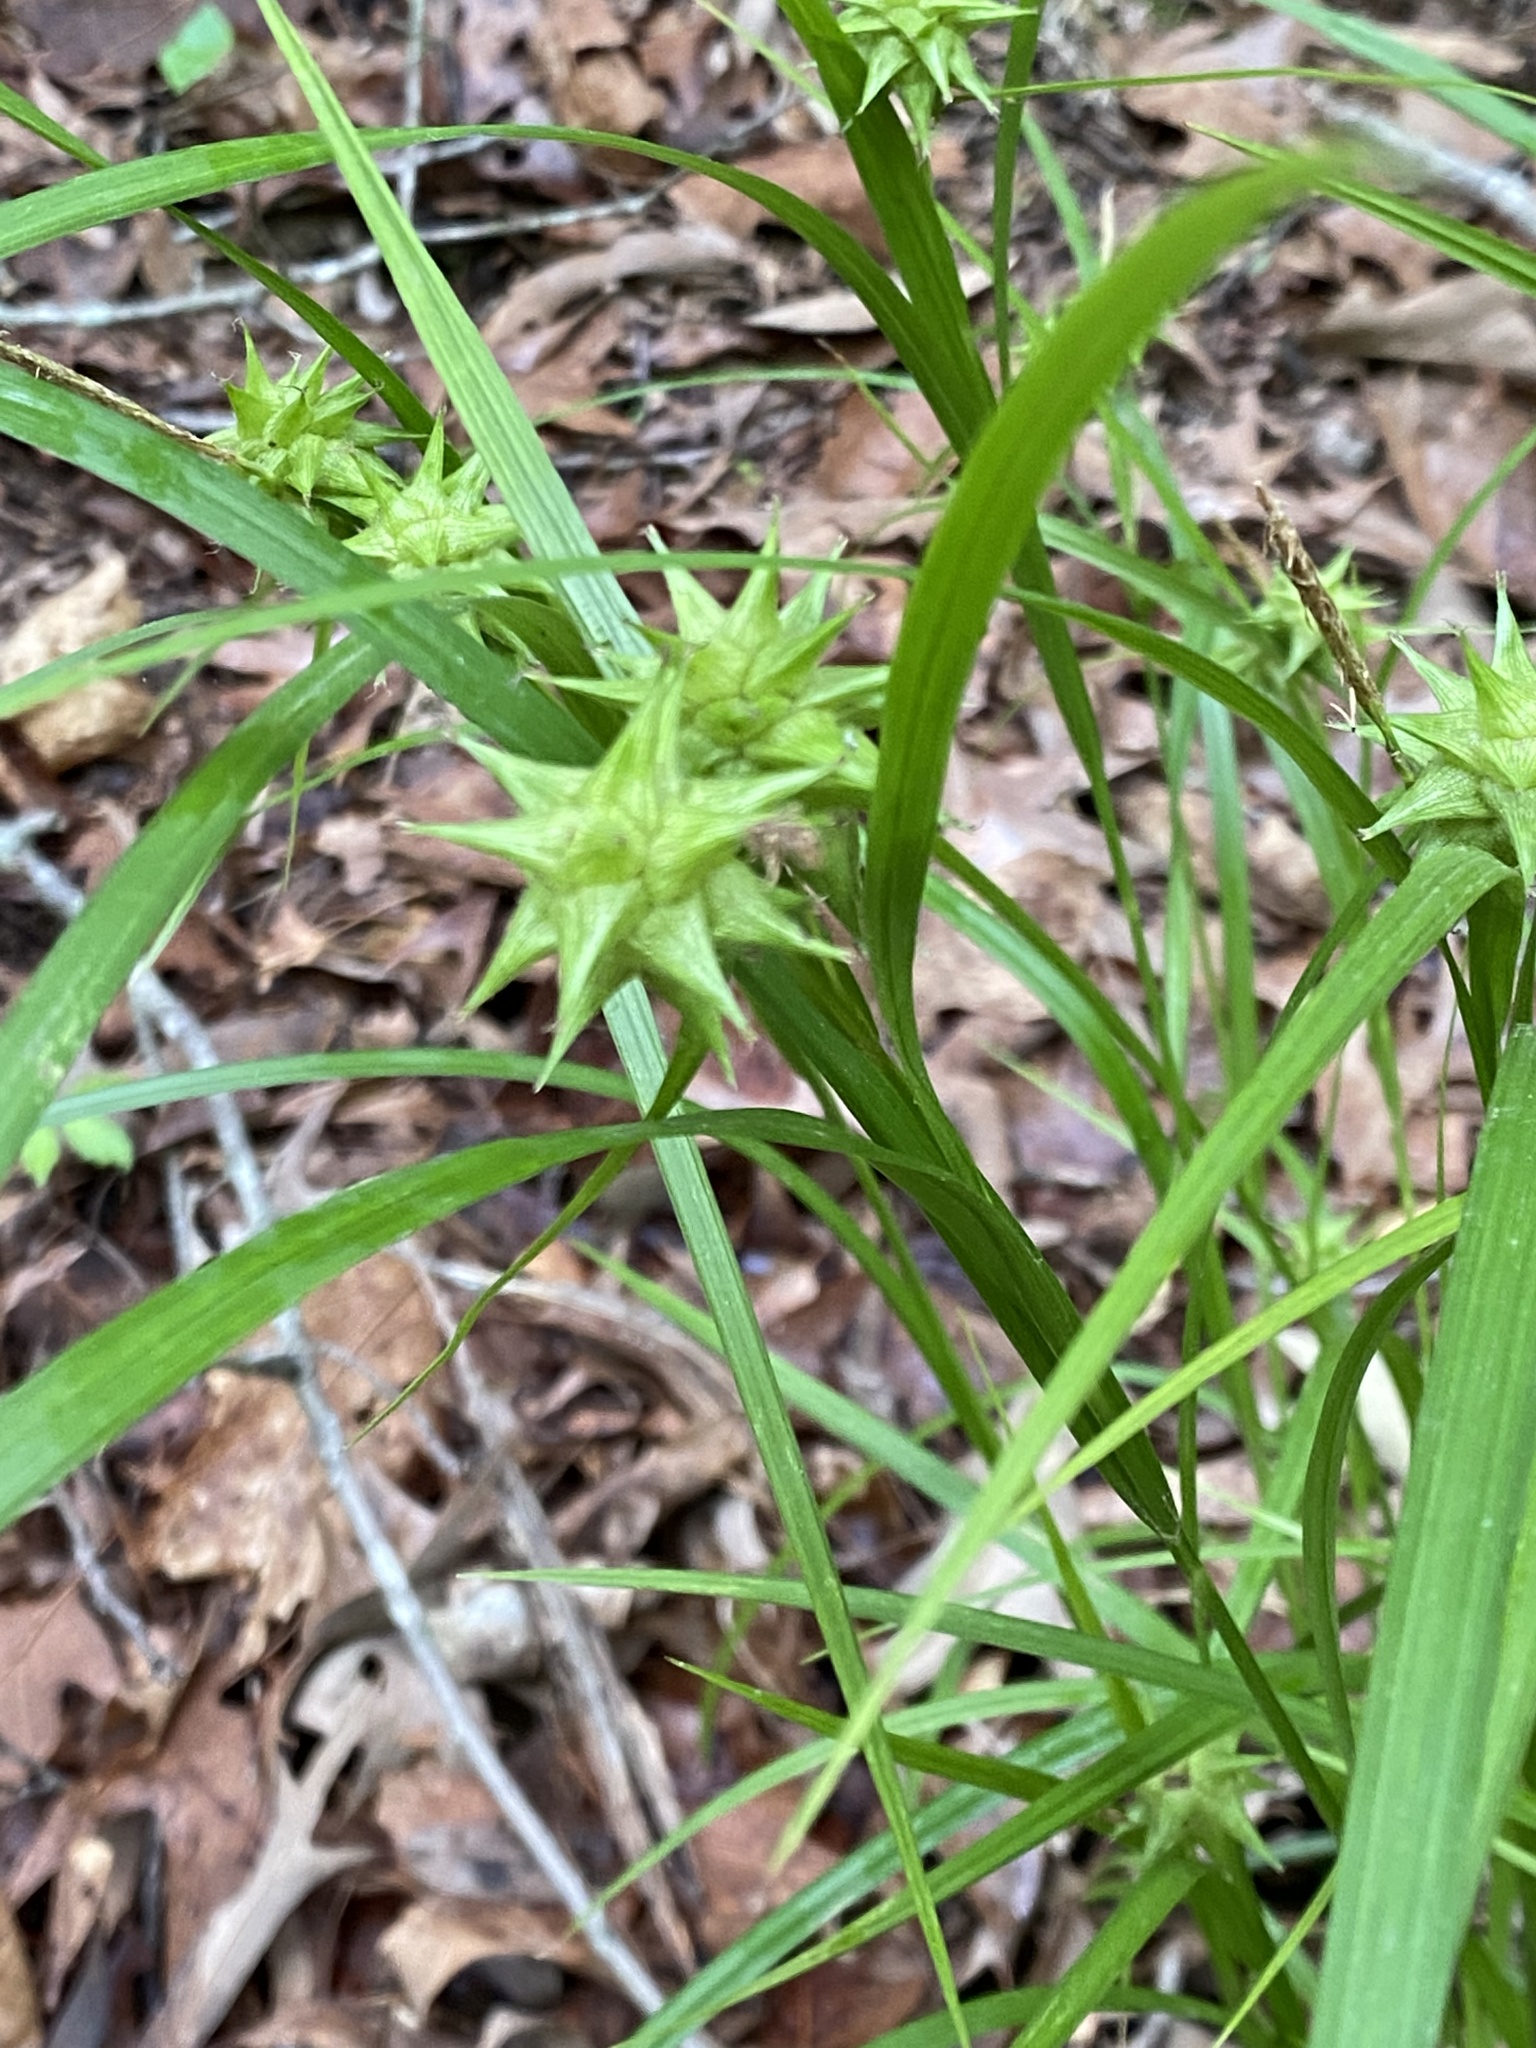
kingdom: Plantae
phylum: Tracheophyta
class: Liliopsida
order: Poales
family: Cyperaceae
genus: Carex
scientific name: Carex grayi
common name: Asa gray's sedge
